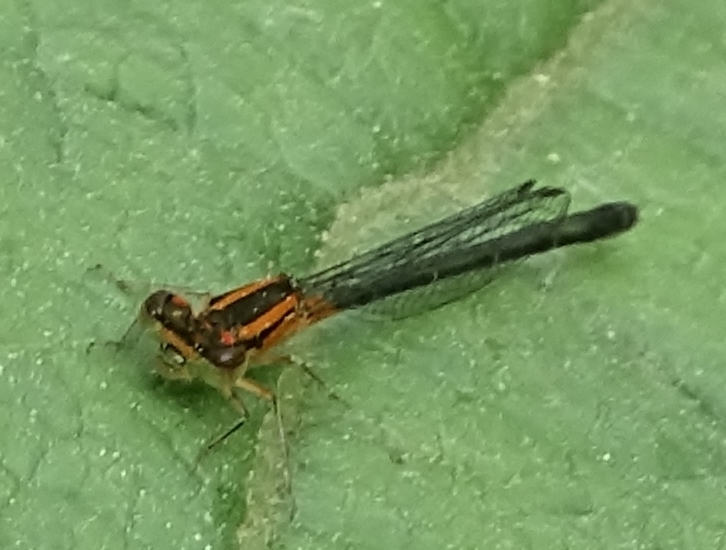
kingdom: Animalia
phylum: Arthropoda
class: Insecta
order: Odonata
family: Coenagrionidae
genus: Ischnura
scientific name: Ischnura verticalis
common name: Eastern forktail
